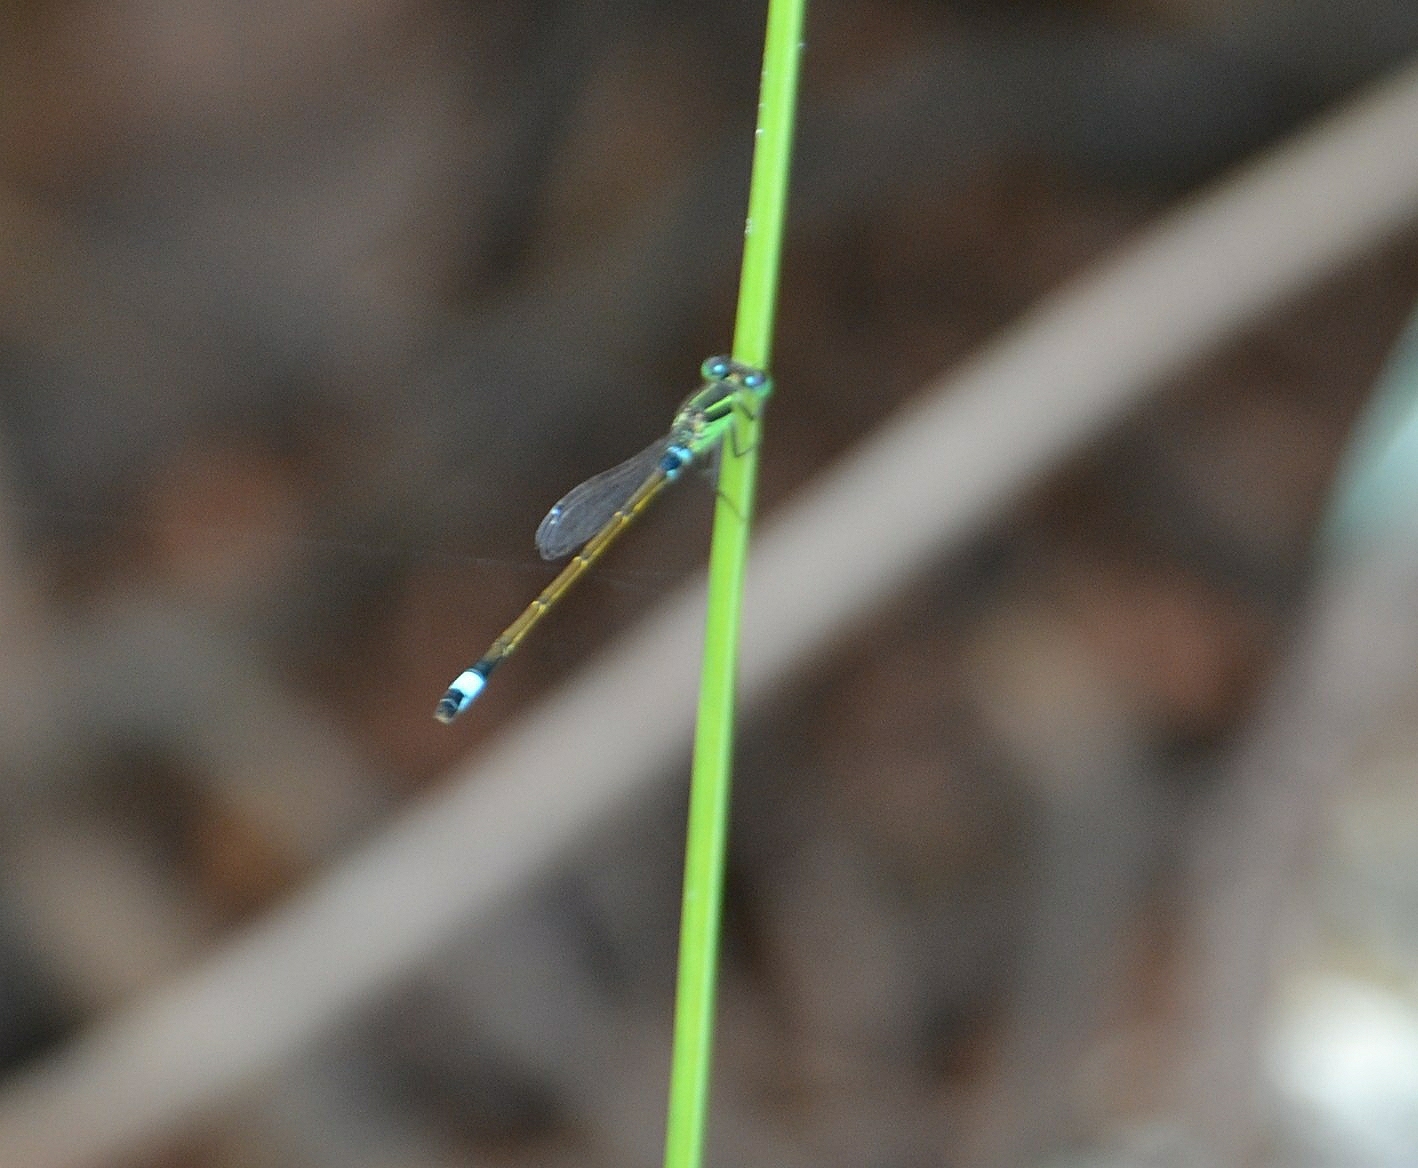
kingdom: Animalia
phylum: Arthropoda
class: Insecta
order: Odonata
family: Coenagrionidae
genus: Ischnura
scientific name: Ischnura senegalensis
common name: Tropical bluetail
